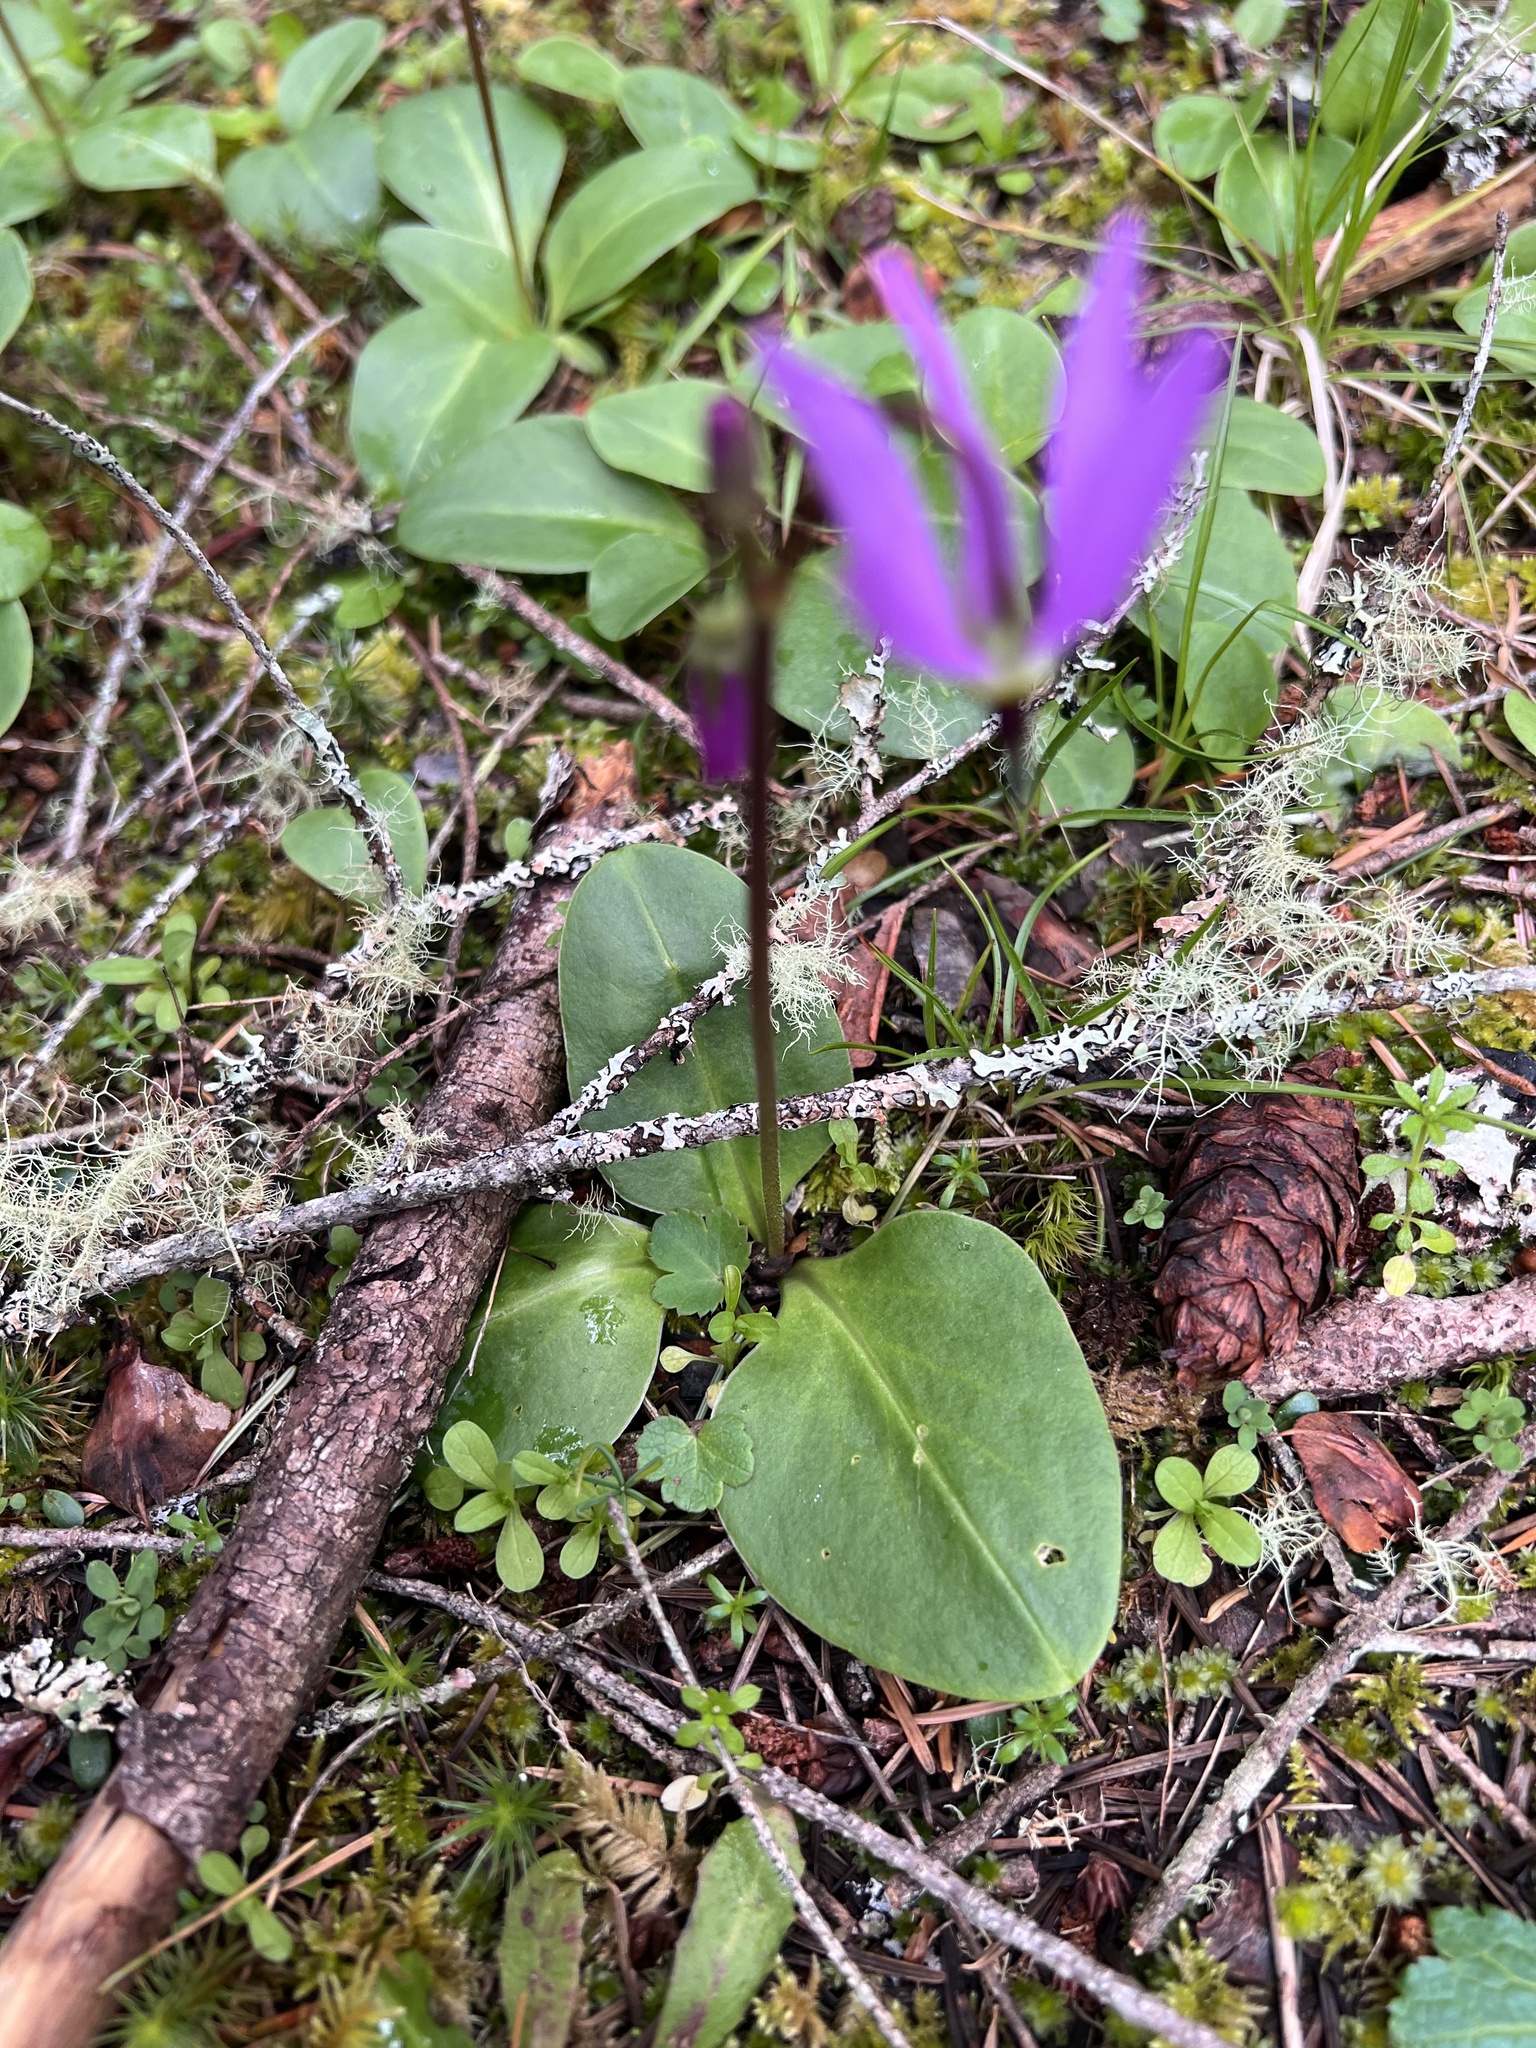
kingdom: Plantae
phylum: Tracheophyta
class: Magnoliopsida
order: Ericales
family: Primulaceae
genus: Dodecatheon
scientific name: Dodecatheon hendersonii
